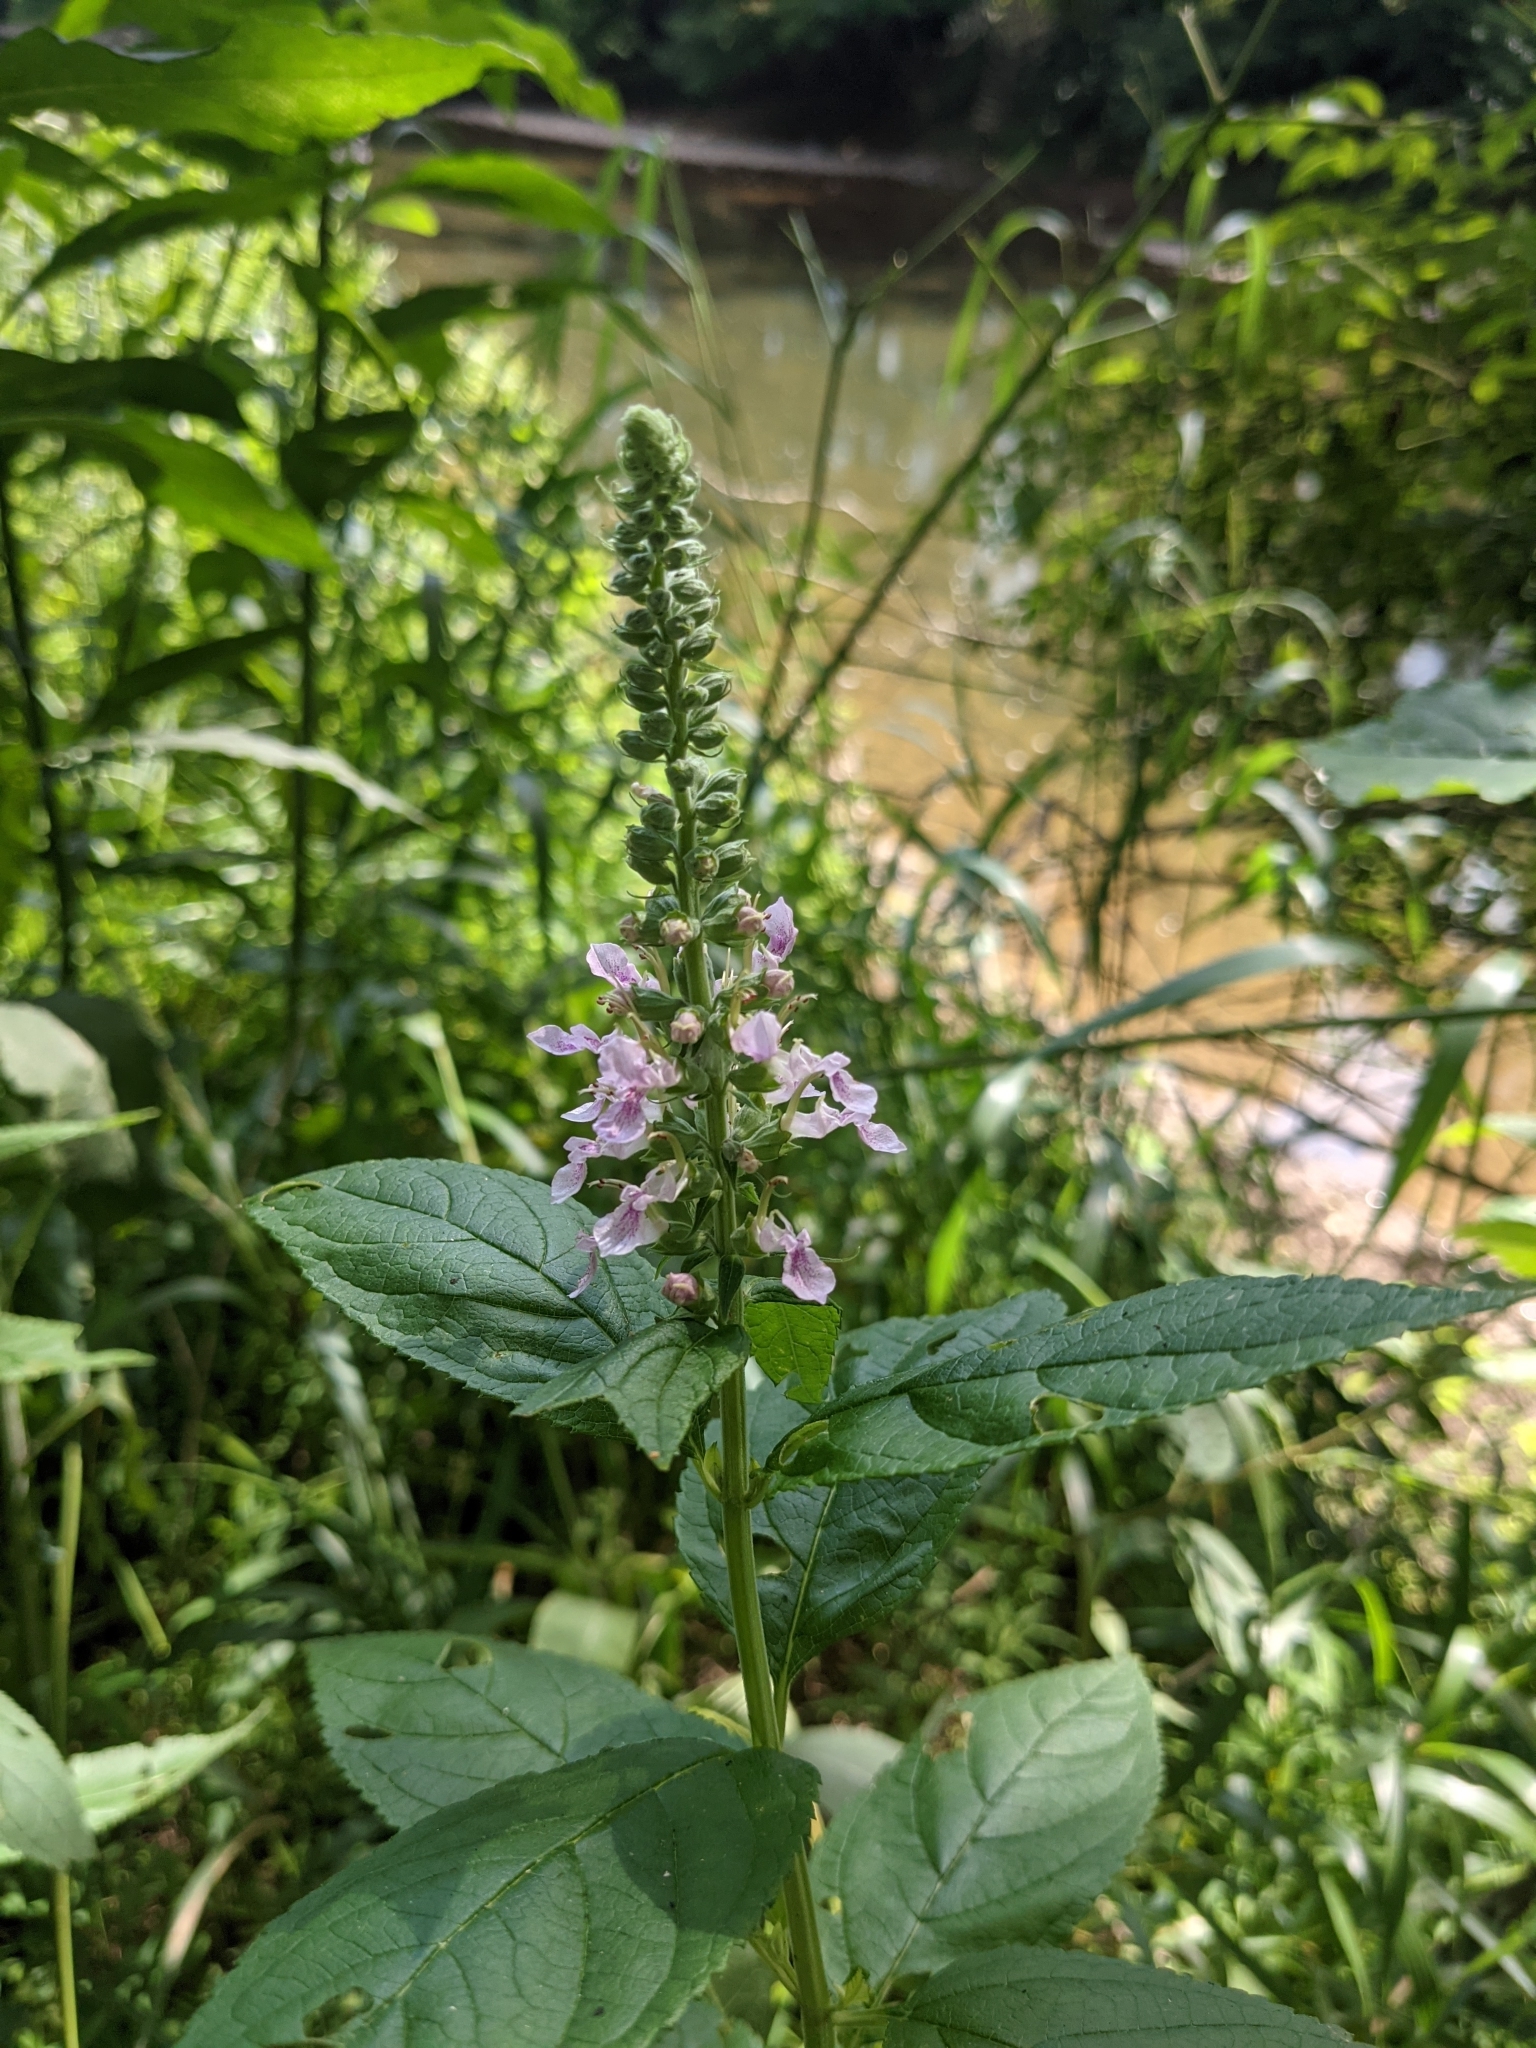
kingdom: Plantae
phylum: Tracheophyta
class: Magnoliopsida
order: Lamiales
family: Lamiaceae
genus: Teucrium
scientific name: Teucrium canadense
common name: American germander
